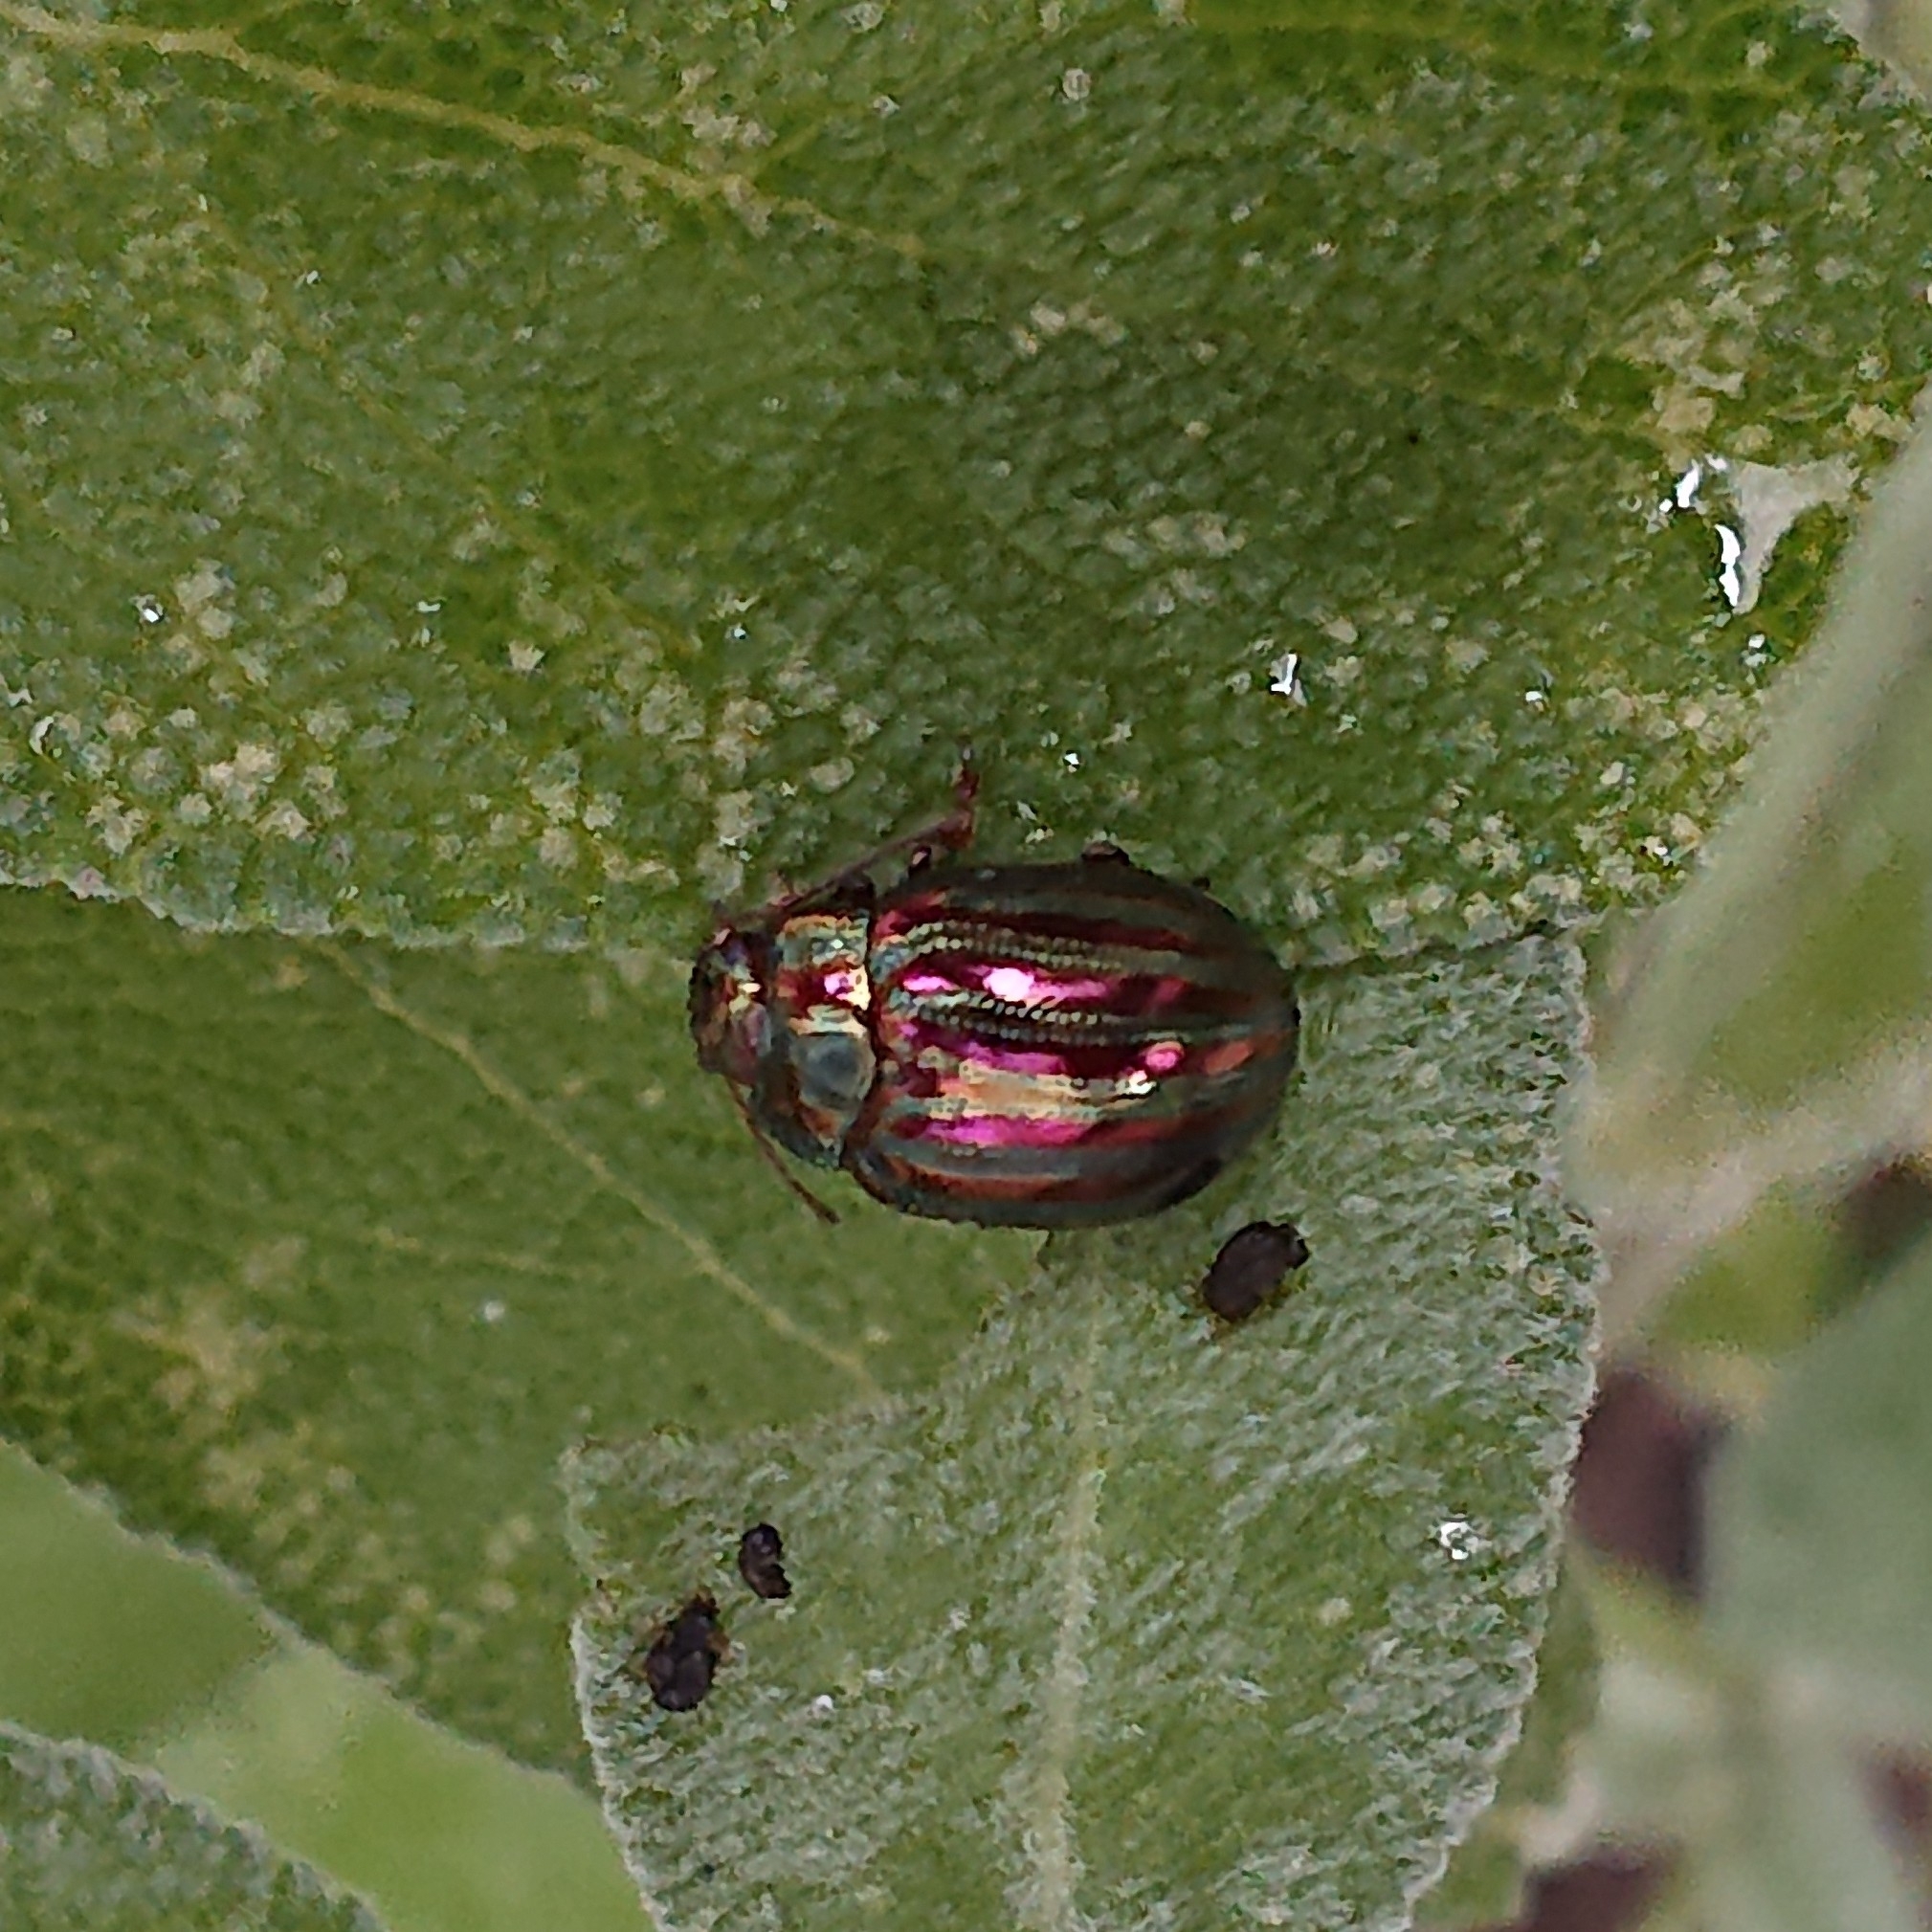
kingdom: Animalia
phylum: Arthropoda
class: Insecta
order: Coleoptera
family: Chrysomelidae
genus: Chrysolina
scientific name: Chrysolina americana
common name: Rosemary beetle
